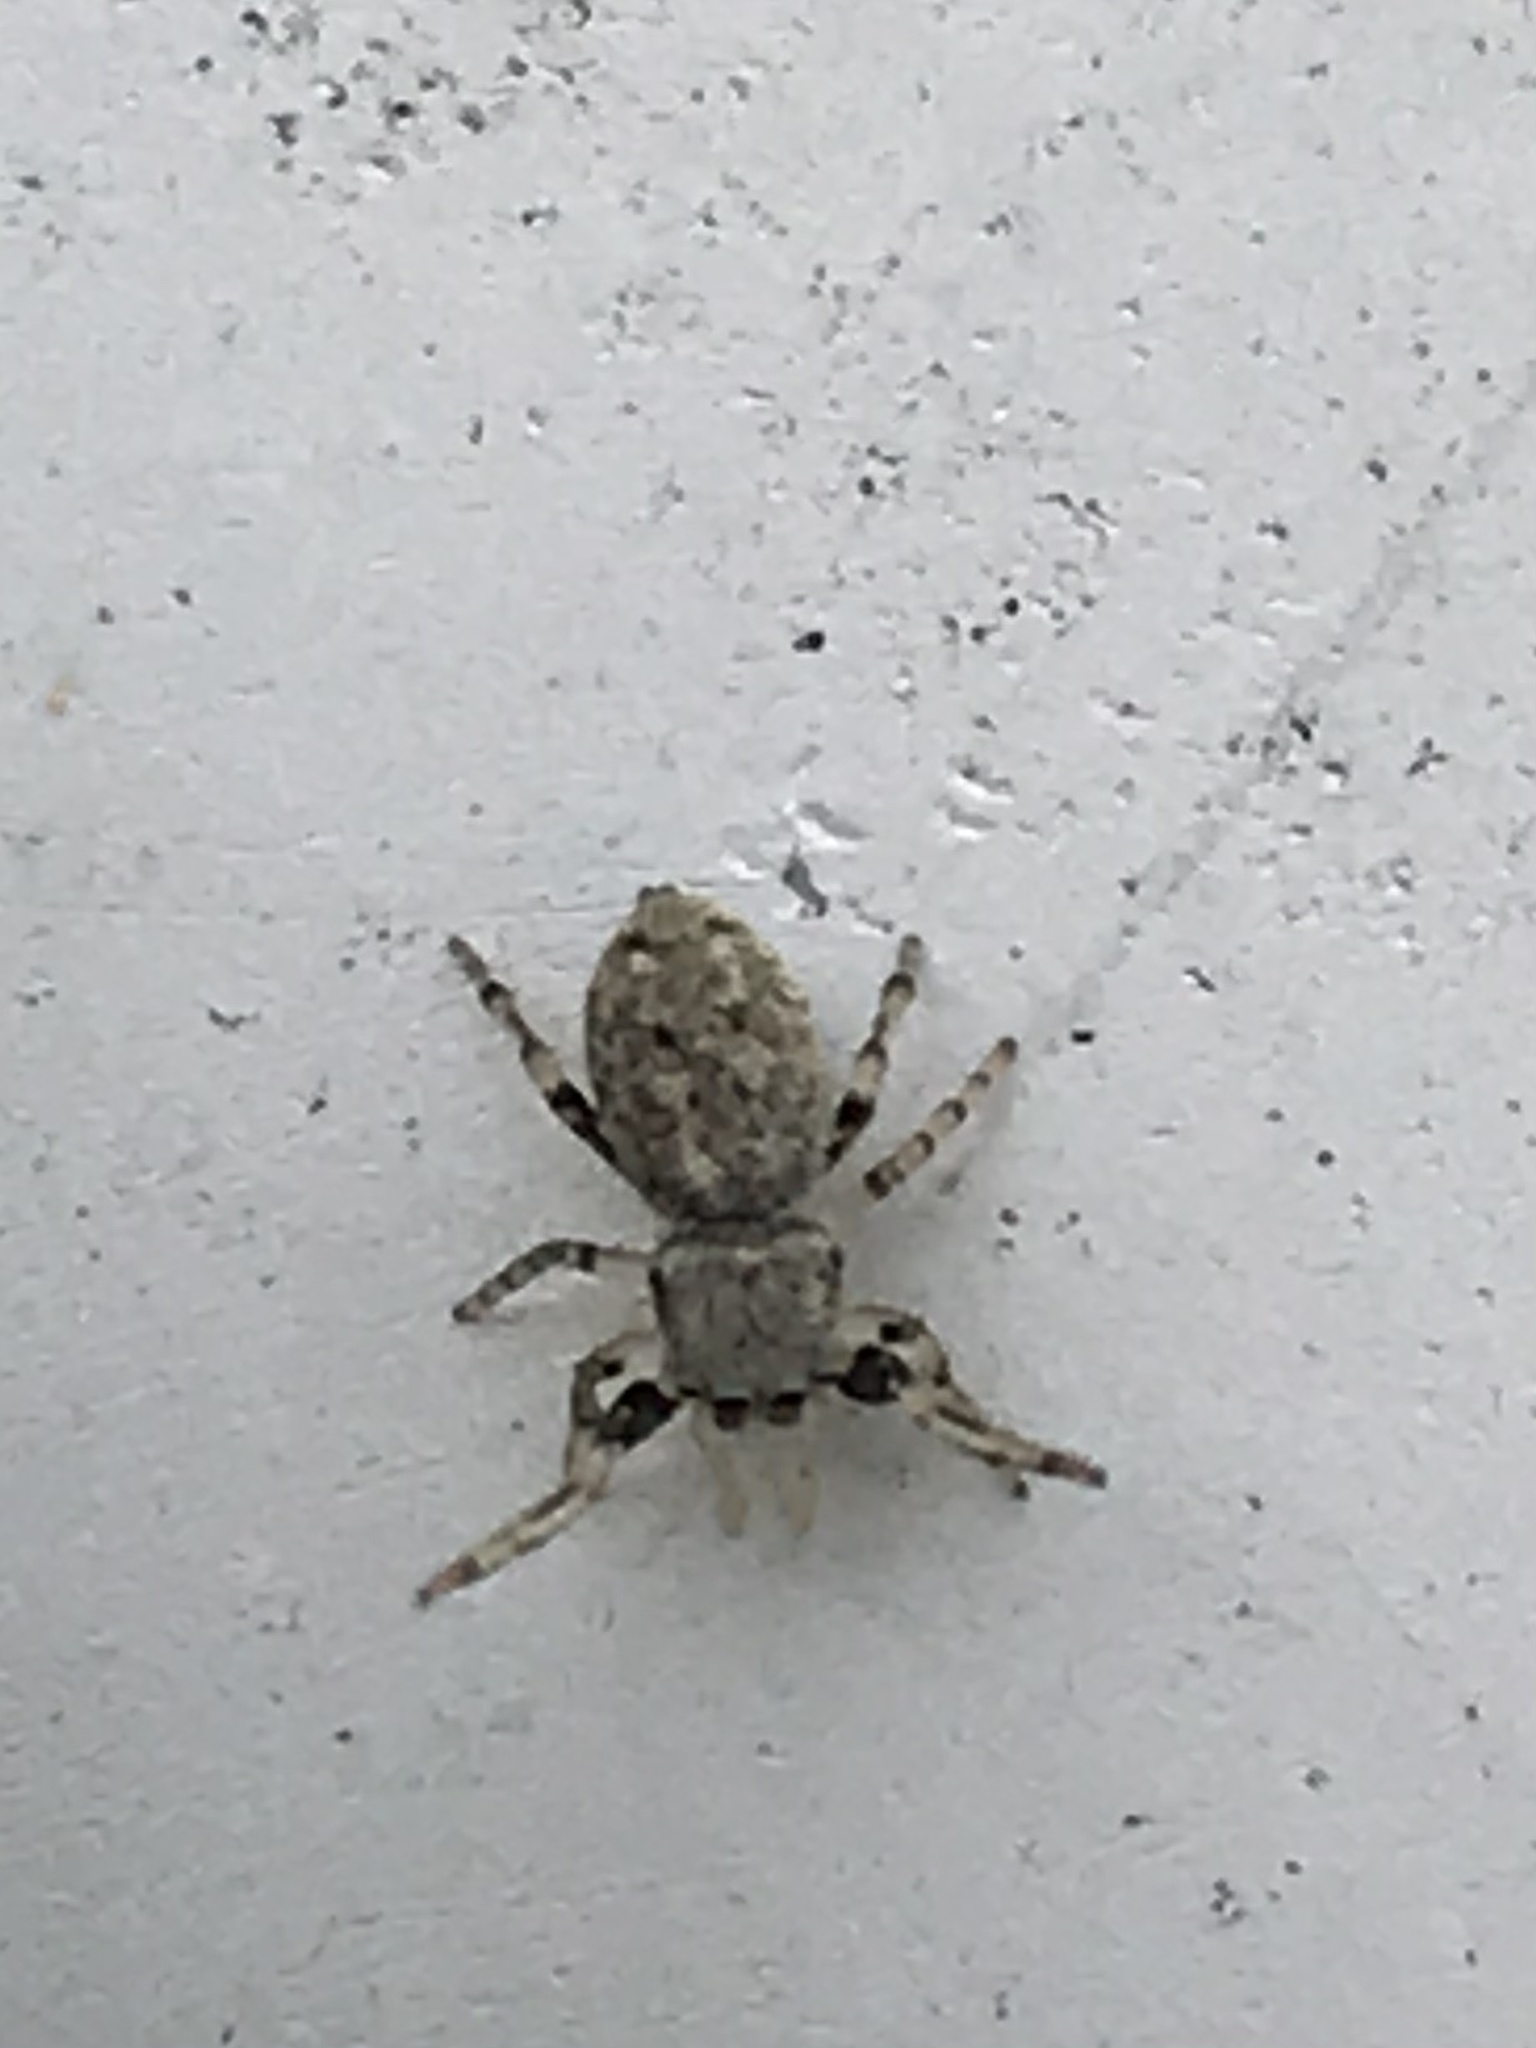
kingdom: Animalia
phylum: Arthropoda
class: Arachnida
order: Araneae
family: Salticidae
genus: Zygoballus
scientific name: Zygoballus rufipes
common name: Jumping spiders
